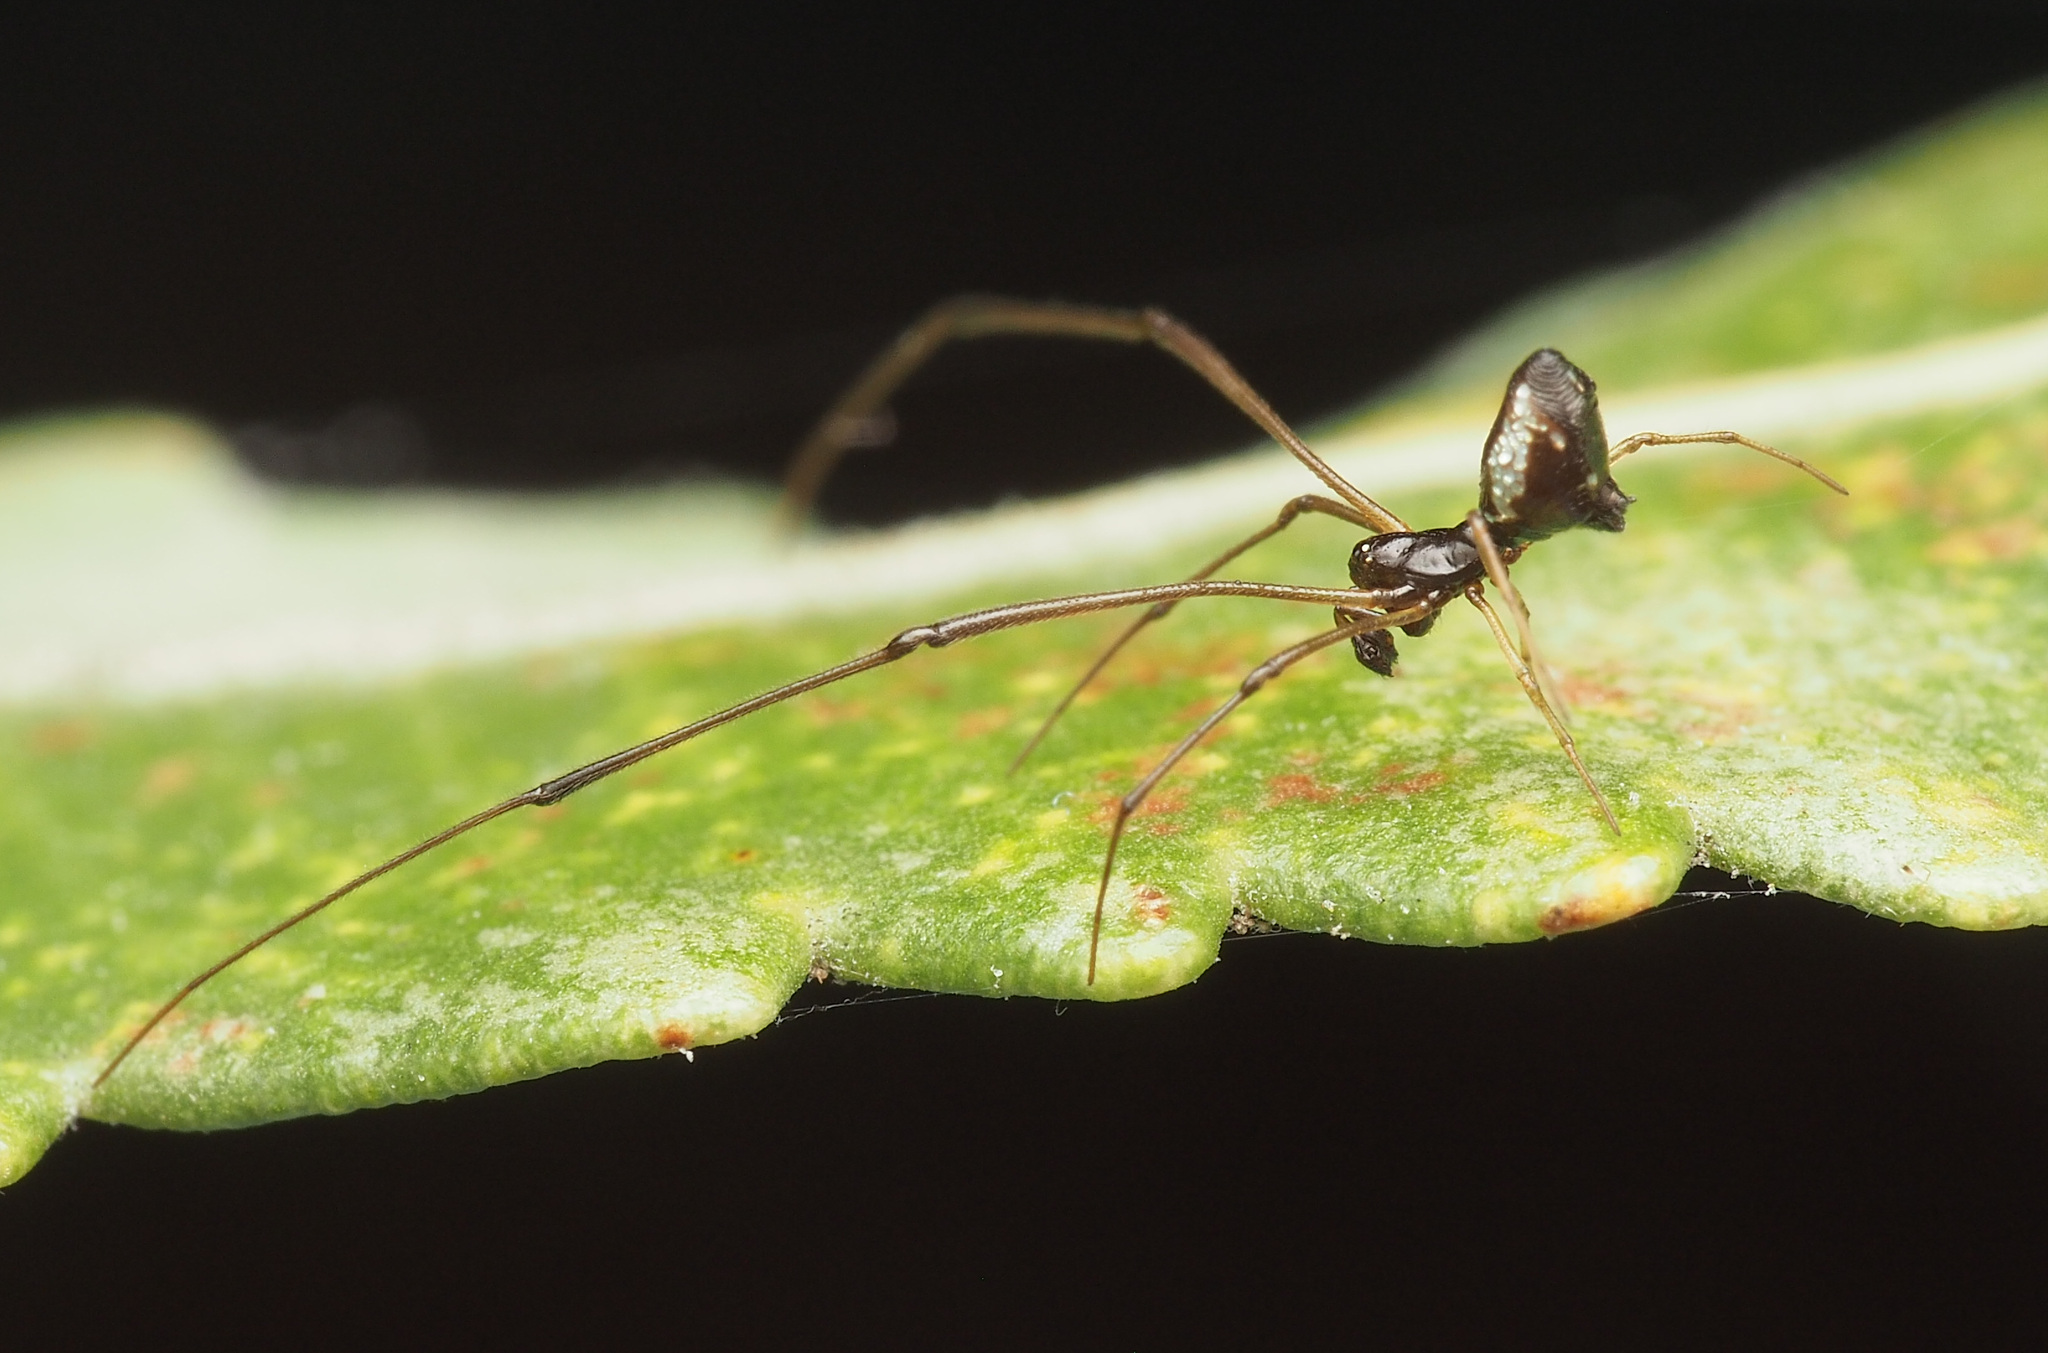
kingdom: Animalia
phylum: Arthropoda
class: Arachnida
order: Araneae
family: Theridiidae
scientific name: Theridiidae
